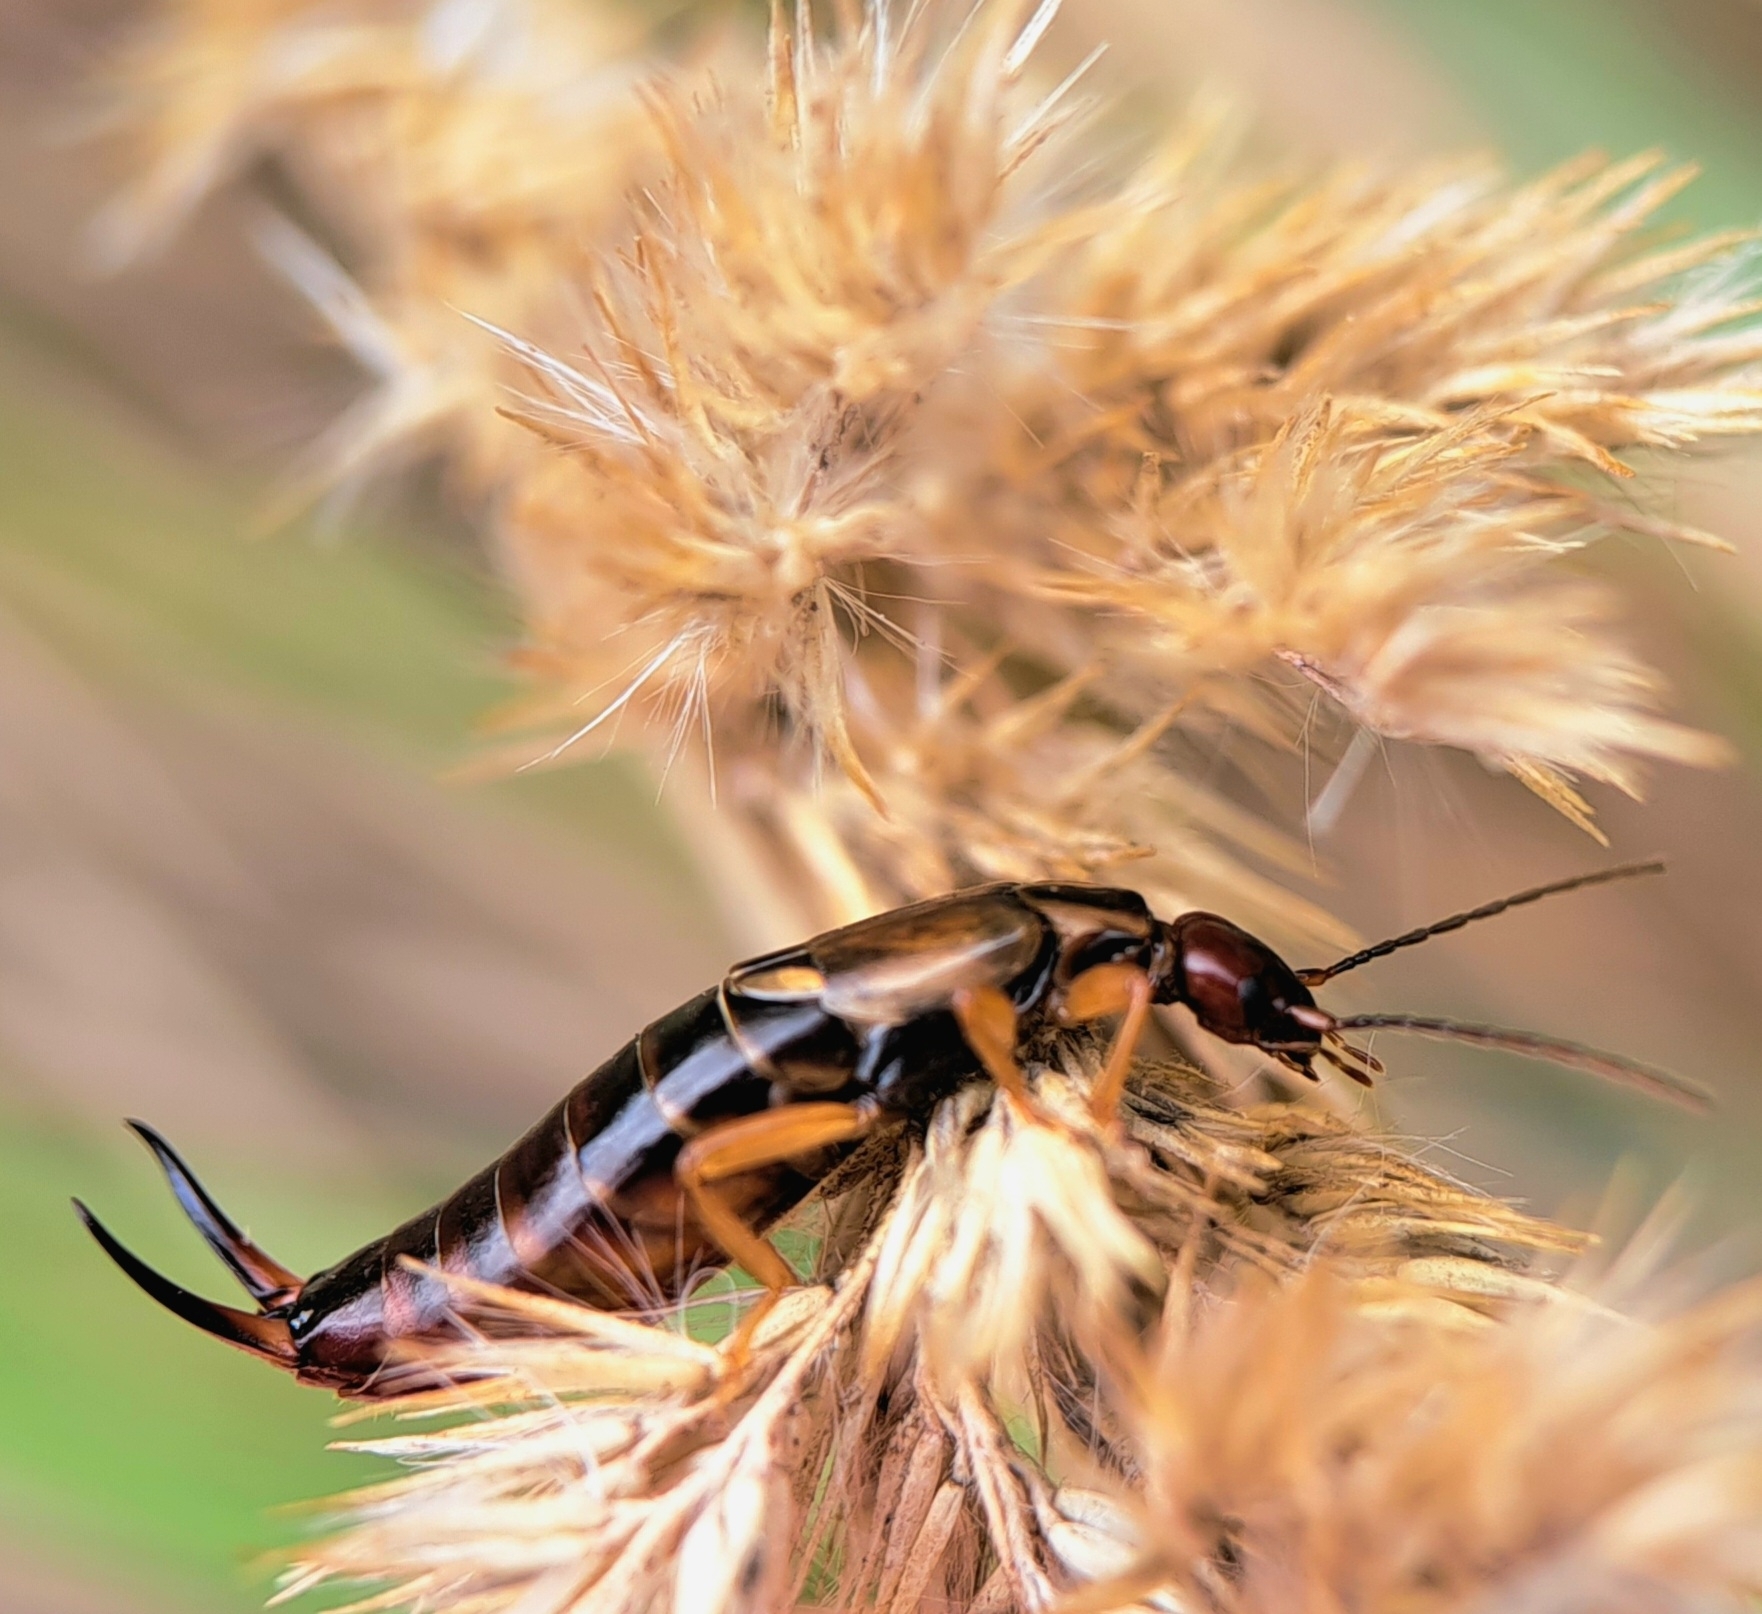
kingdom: Animalia
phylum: Arthropoda
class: Insecta
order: Dermaptera
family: Forficulidae
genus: Forficula
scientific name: Forficula
